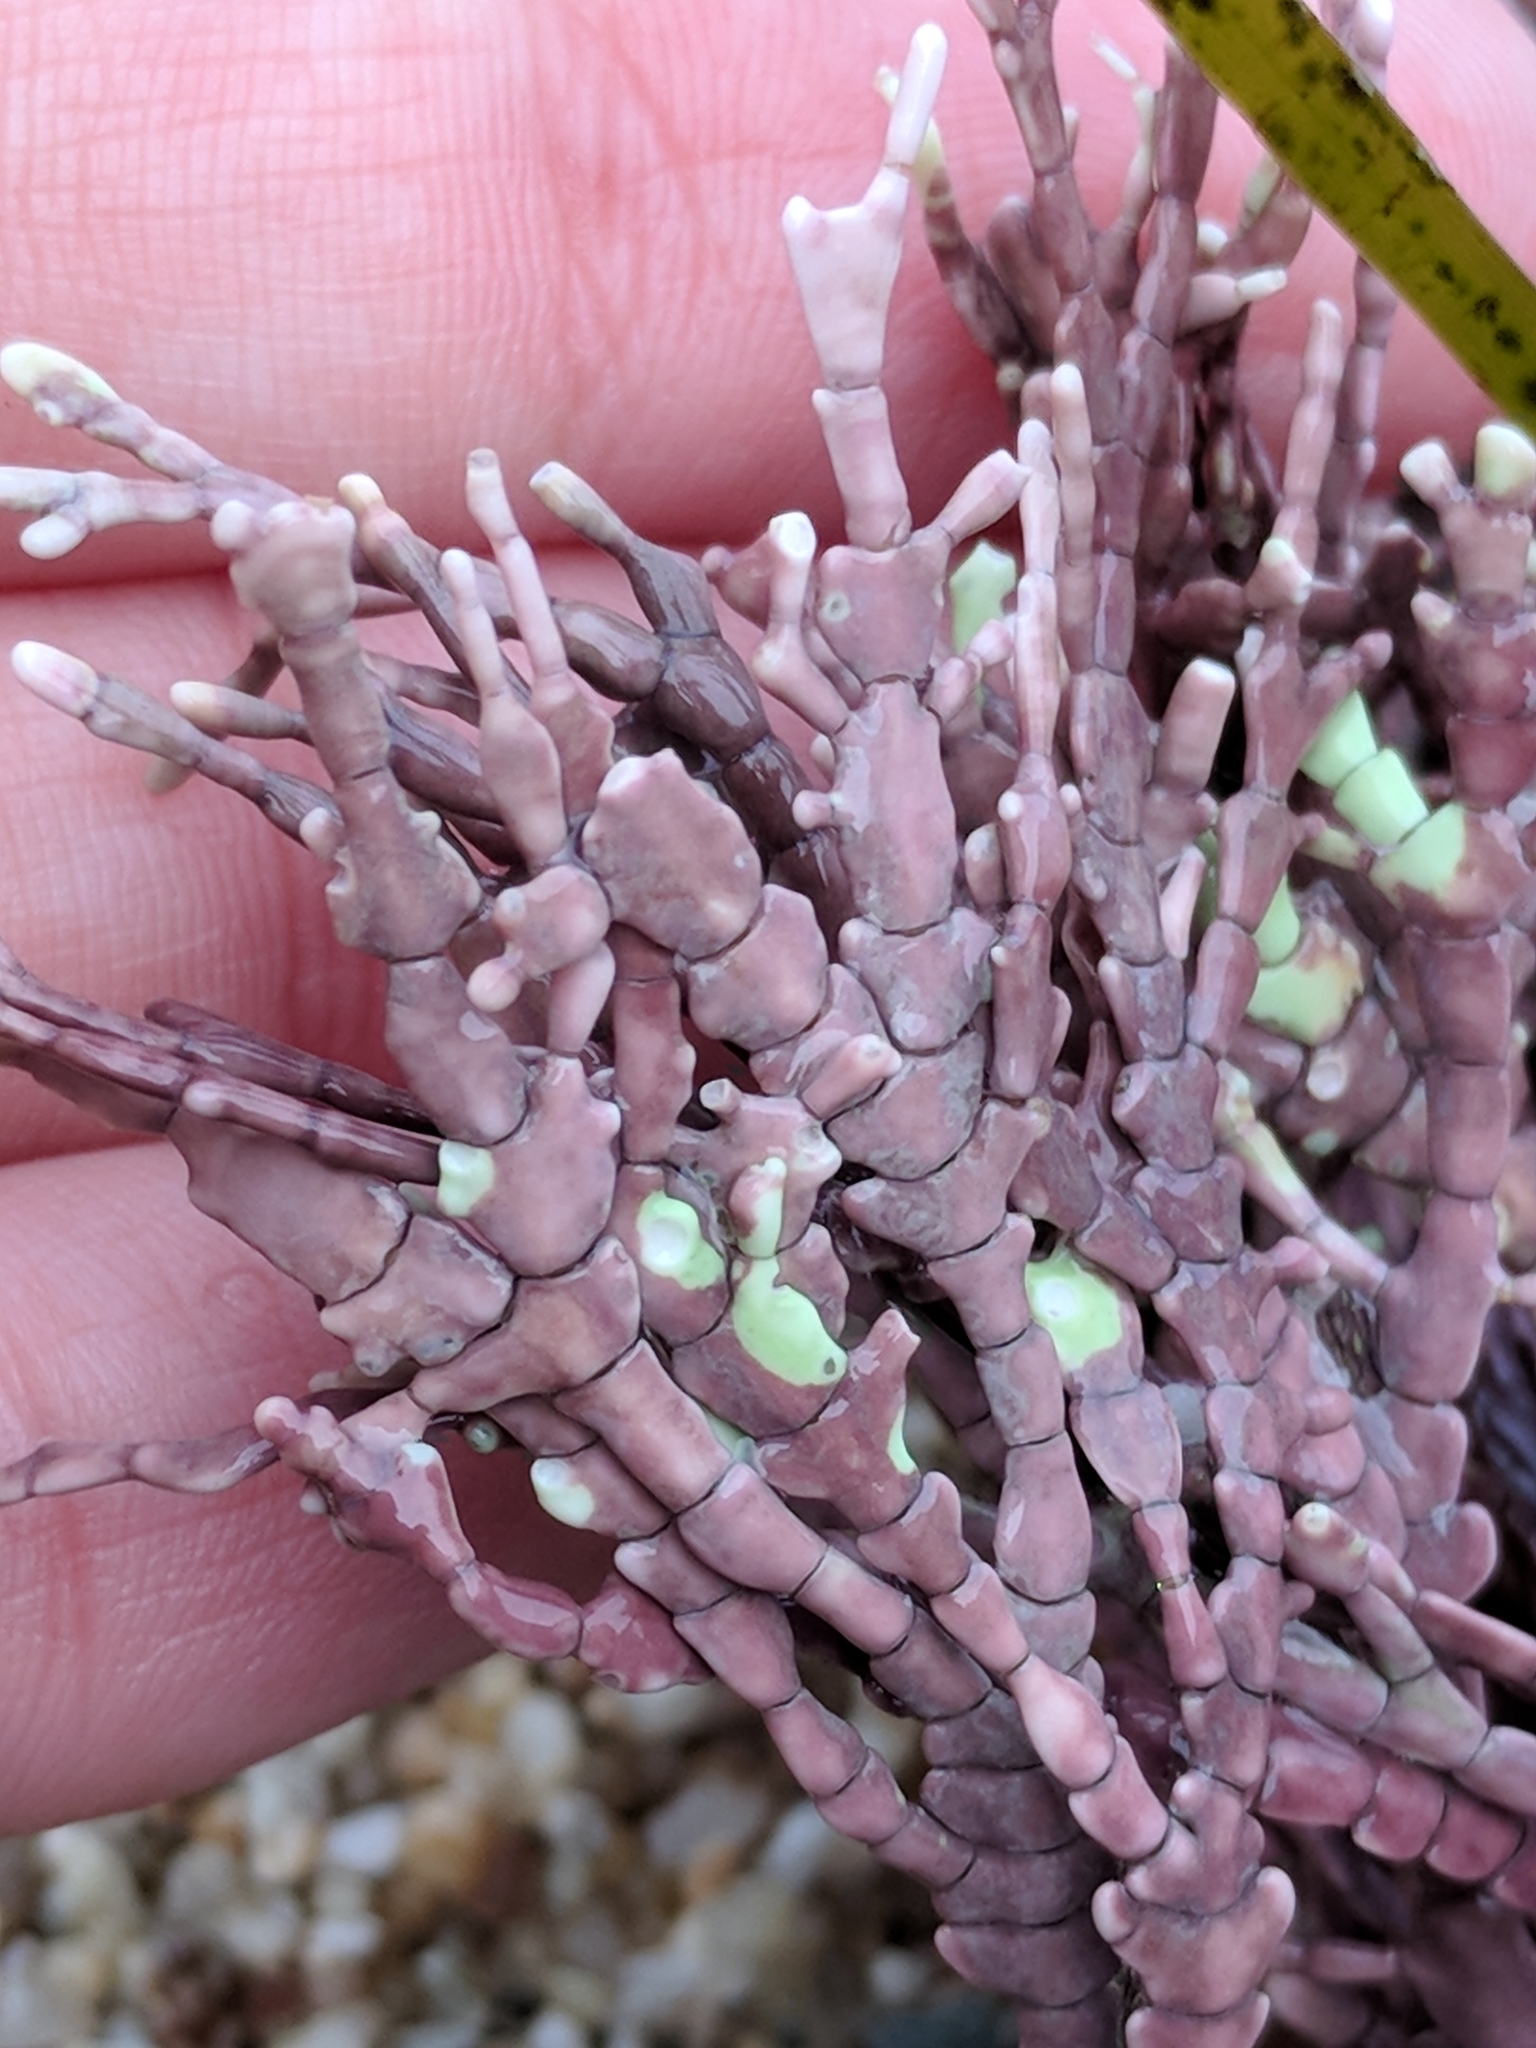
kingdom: Plantae
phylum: Rhodophyta
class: Florideophyceae
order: Corallinales
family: Corallinaceae
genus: Calliarthron
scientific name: Calliarthron tuberculosum
